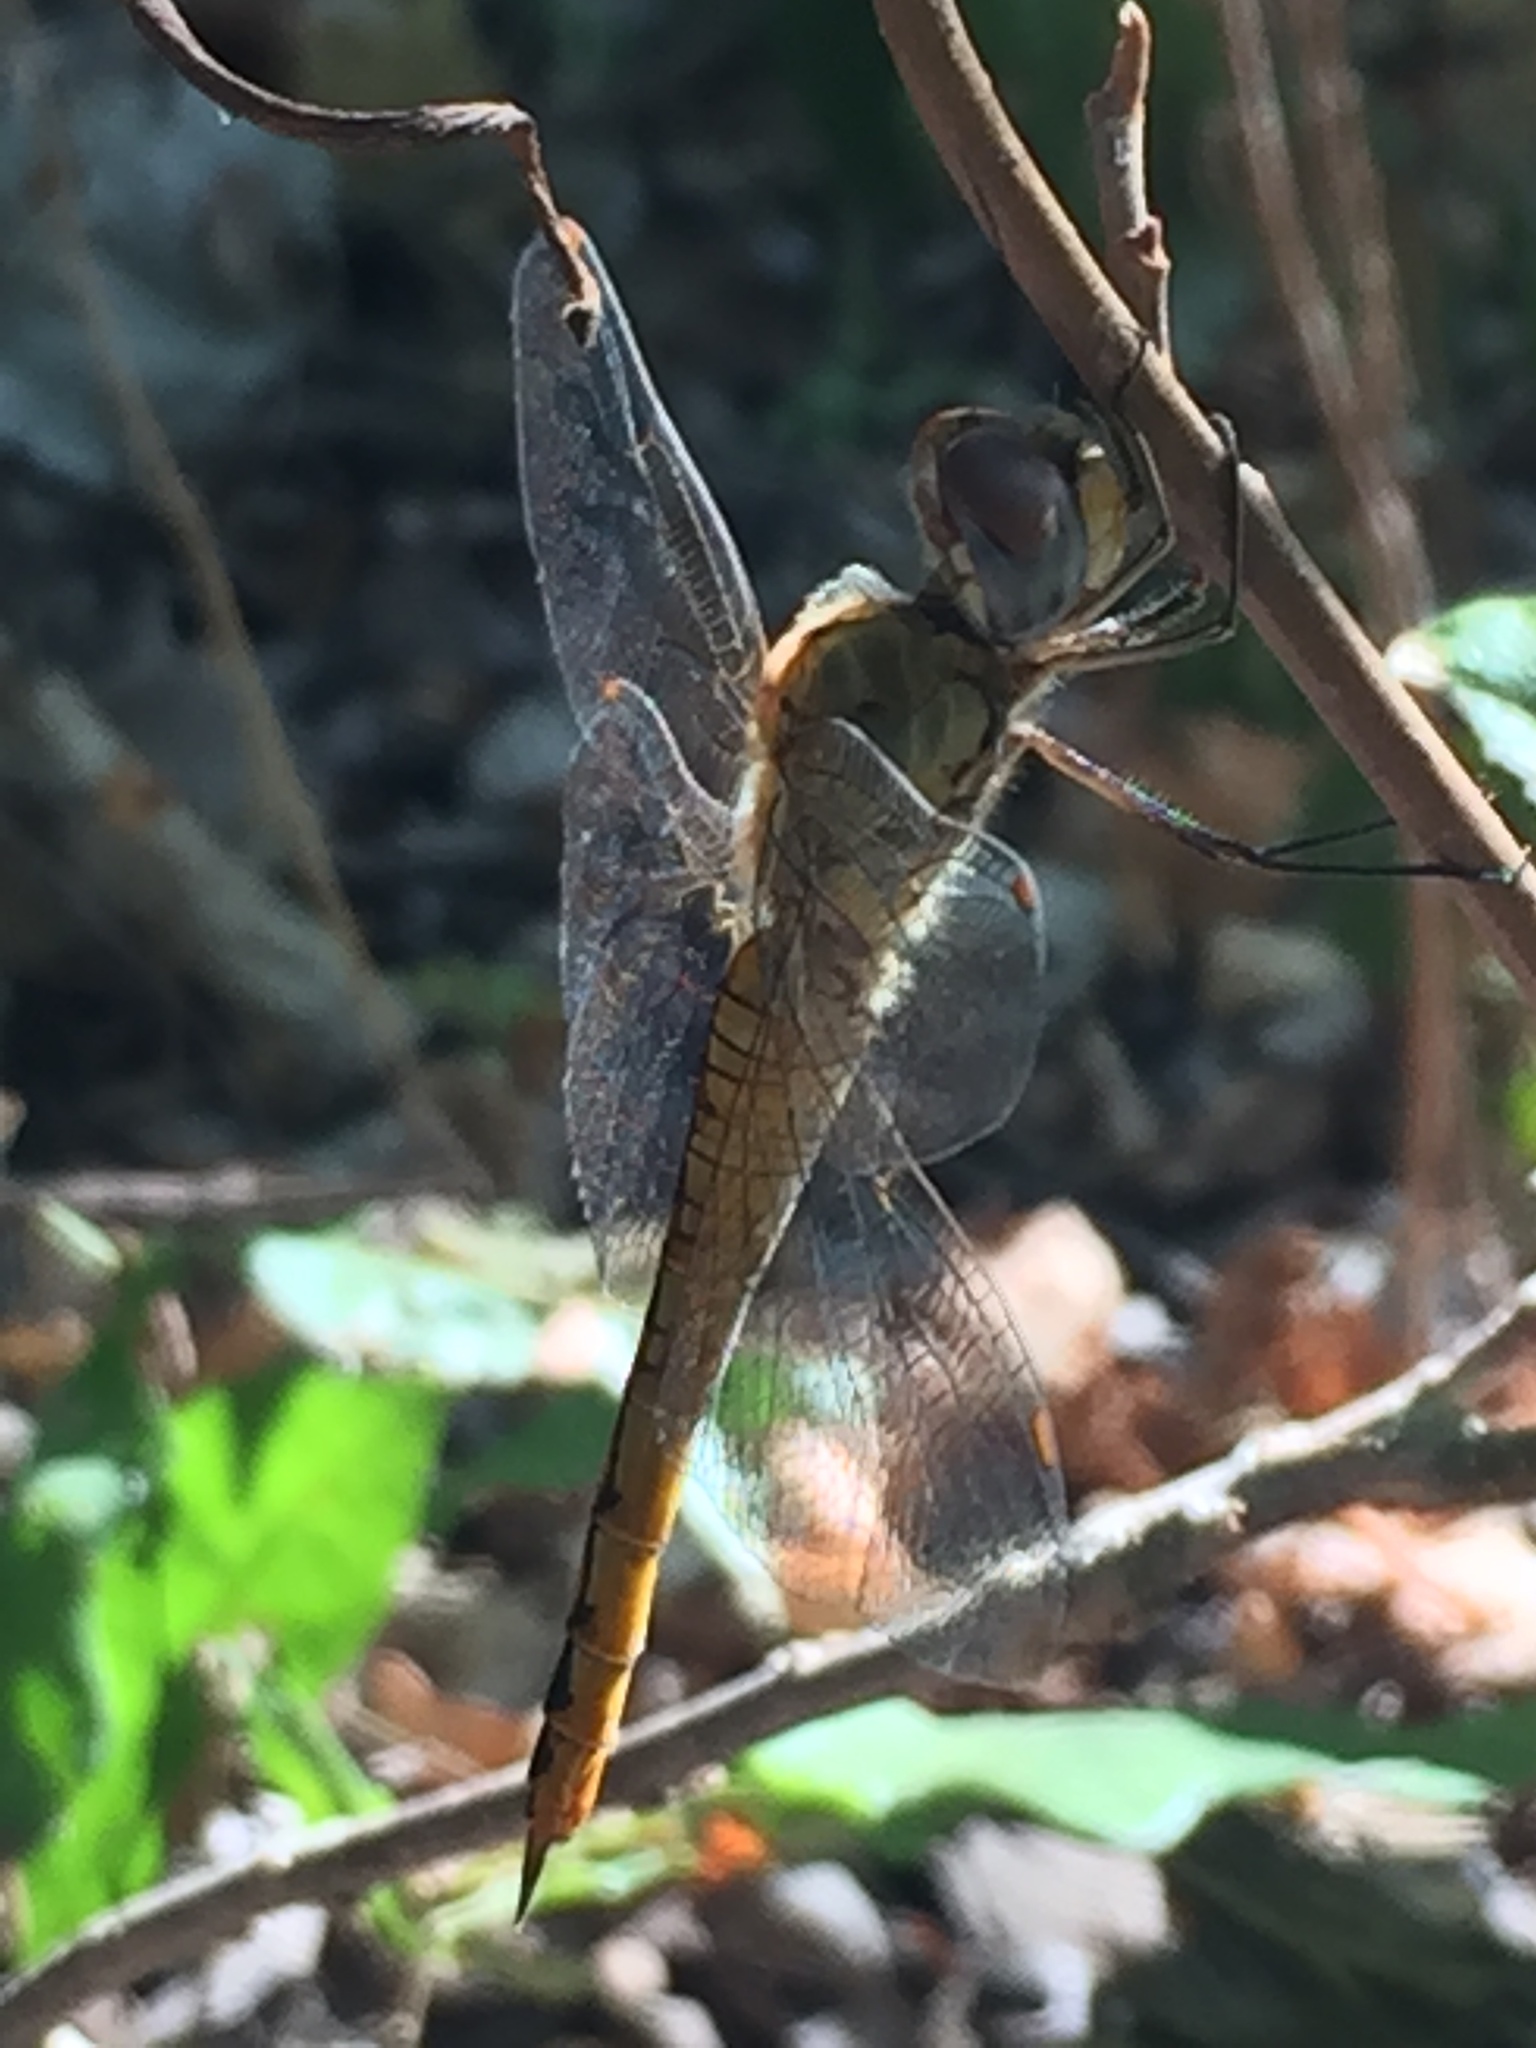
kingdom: Animalia
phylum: Arthropoda
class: Insecta
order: Odonata
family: Libellulidae
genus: Pantala
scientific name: Pantala flavescens
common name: Wandering glider
